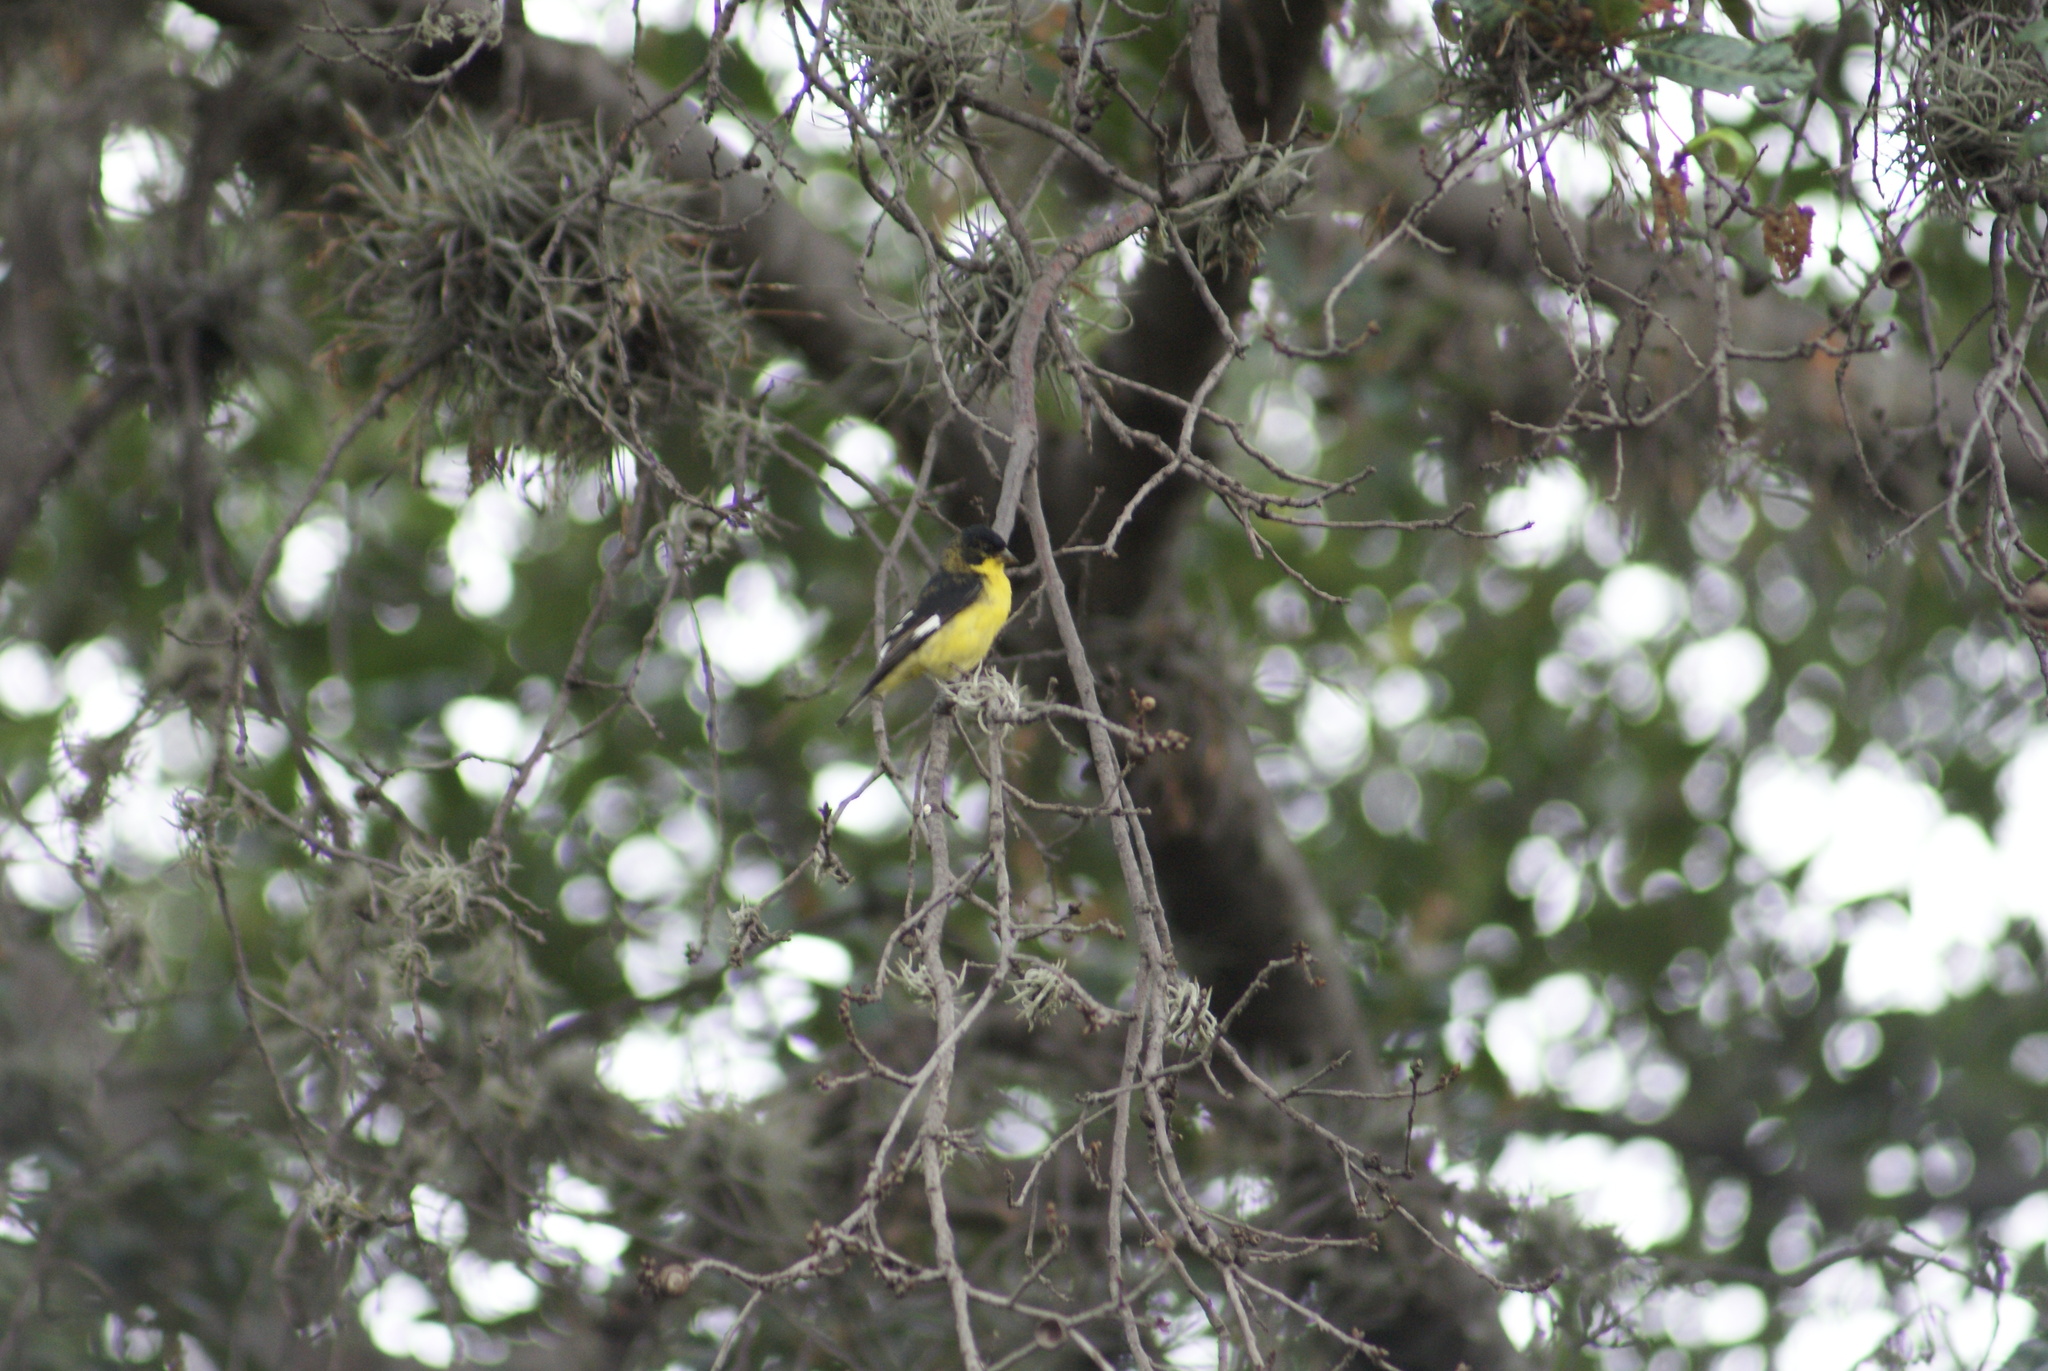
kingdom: Animalia
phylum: Chordata
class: Aves
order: Passeriformes
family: Fringillidae
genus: Spinus
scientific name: Spinus psaltria
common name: Lesser goldfinch
